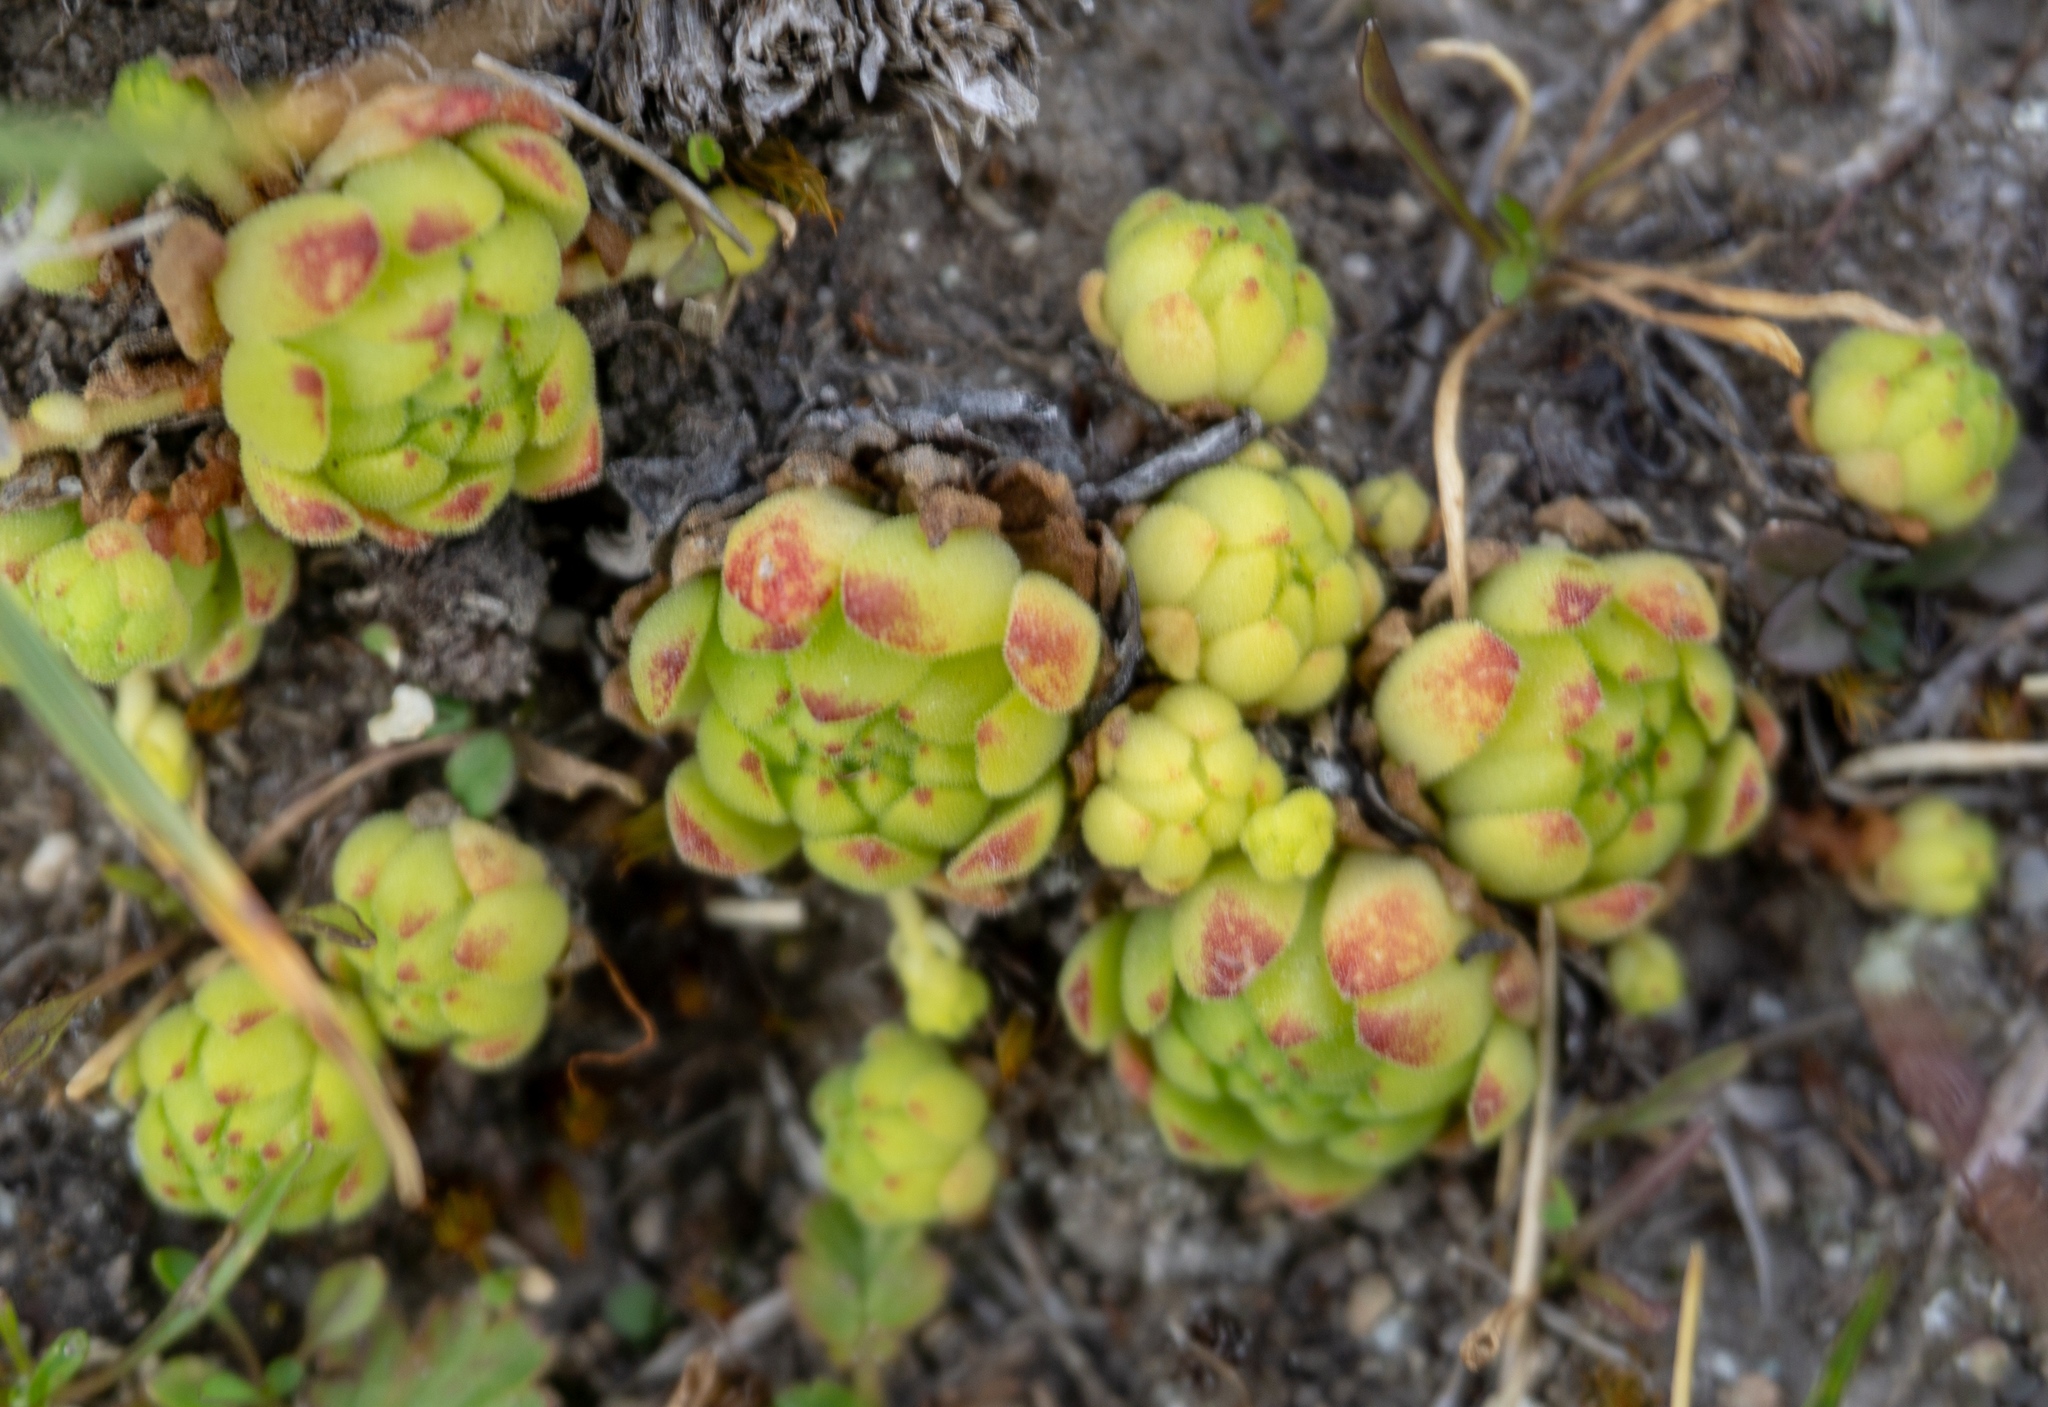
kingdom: Plantae
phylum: Tracheophyta
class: Magnoliopsida
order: Saxifragales
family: Crassulaceae
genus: Sempervivum
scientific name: Sempervivum montanum
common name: Mountain house-leek
